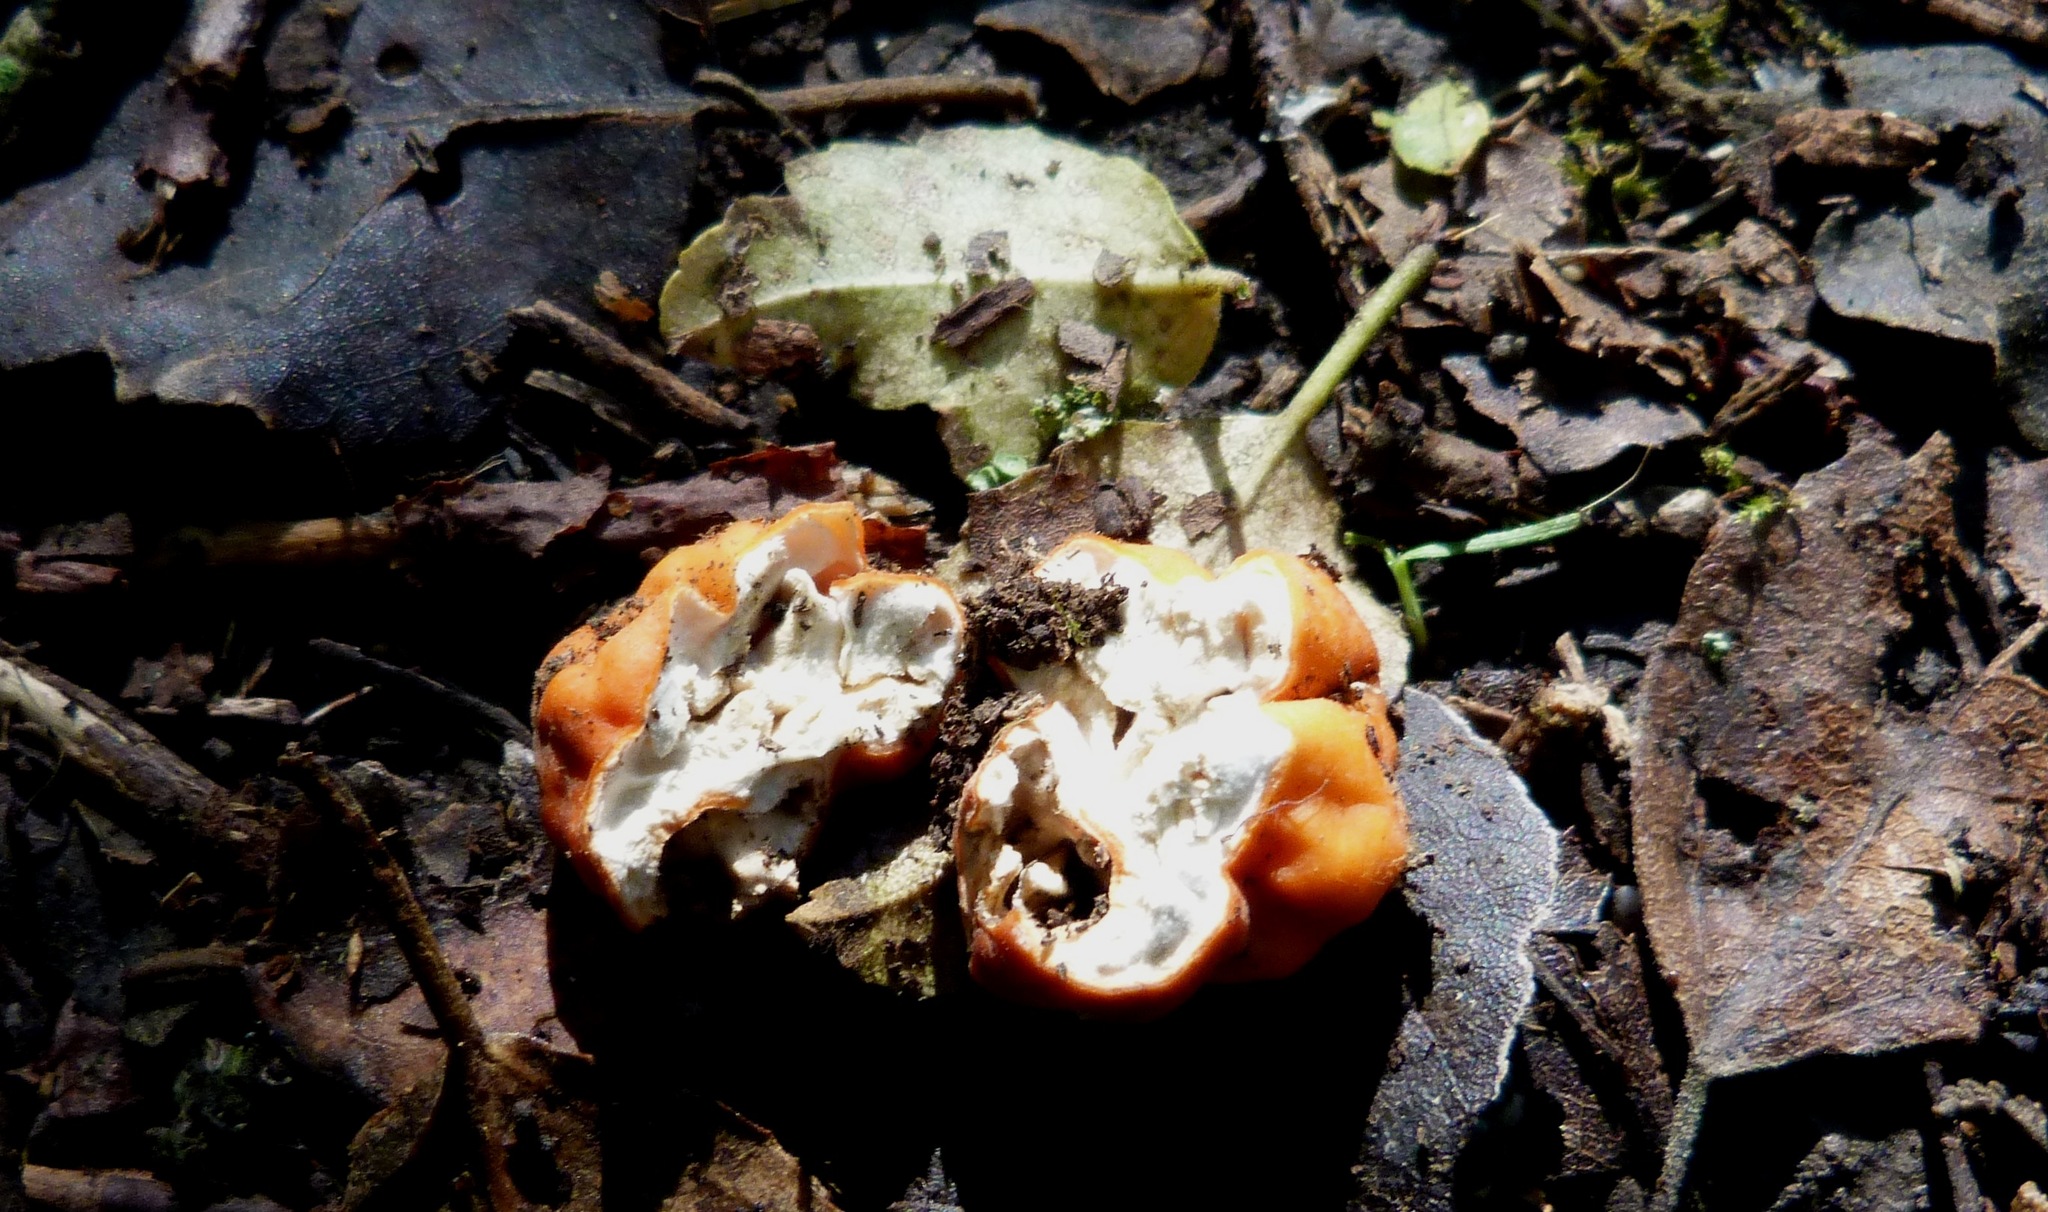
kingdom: Fungi
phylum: Ascomycota
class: Pezizomycetes
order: Pezizales
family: Pyronemataceae
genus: Paurocotylis
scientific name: Paurocotylis pila
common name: Scarlet berry truffle
